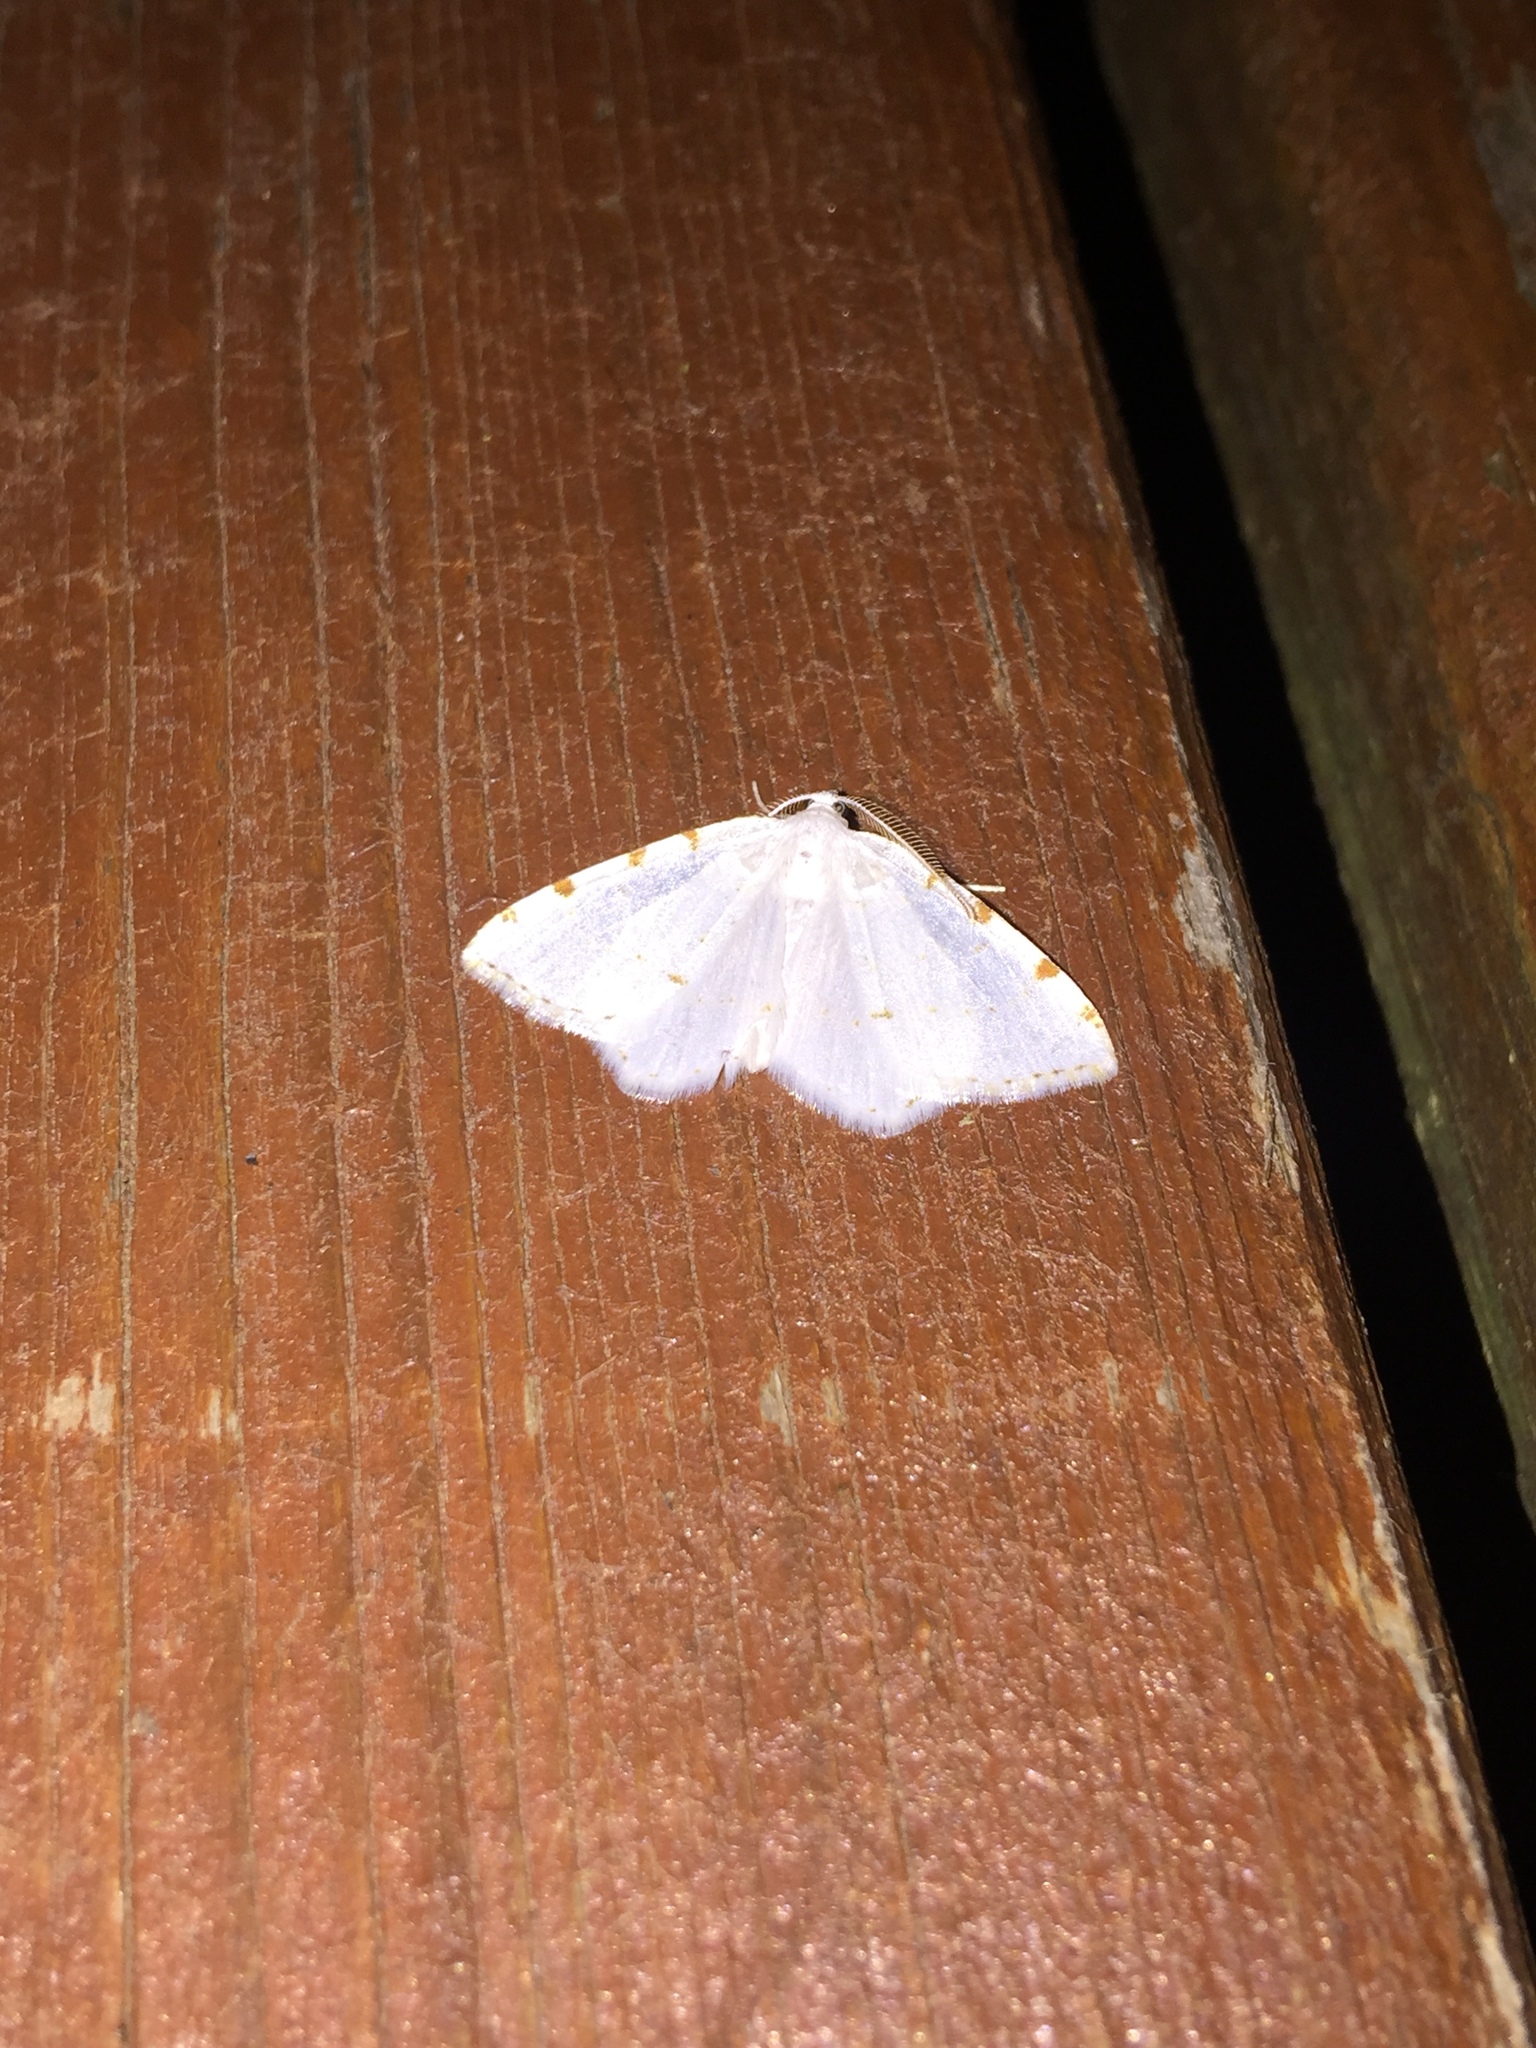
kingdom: Animalia
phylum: Arthropoda
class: Insecta
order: Lepidoptera
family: Geometridae
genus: Macaria
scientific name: Macaria pustularia
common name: Lesser maple spanworm moth
